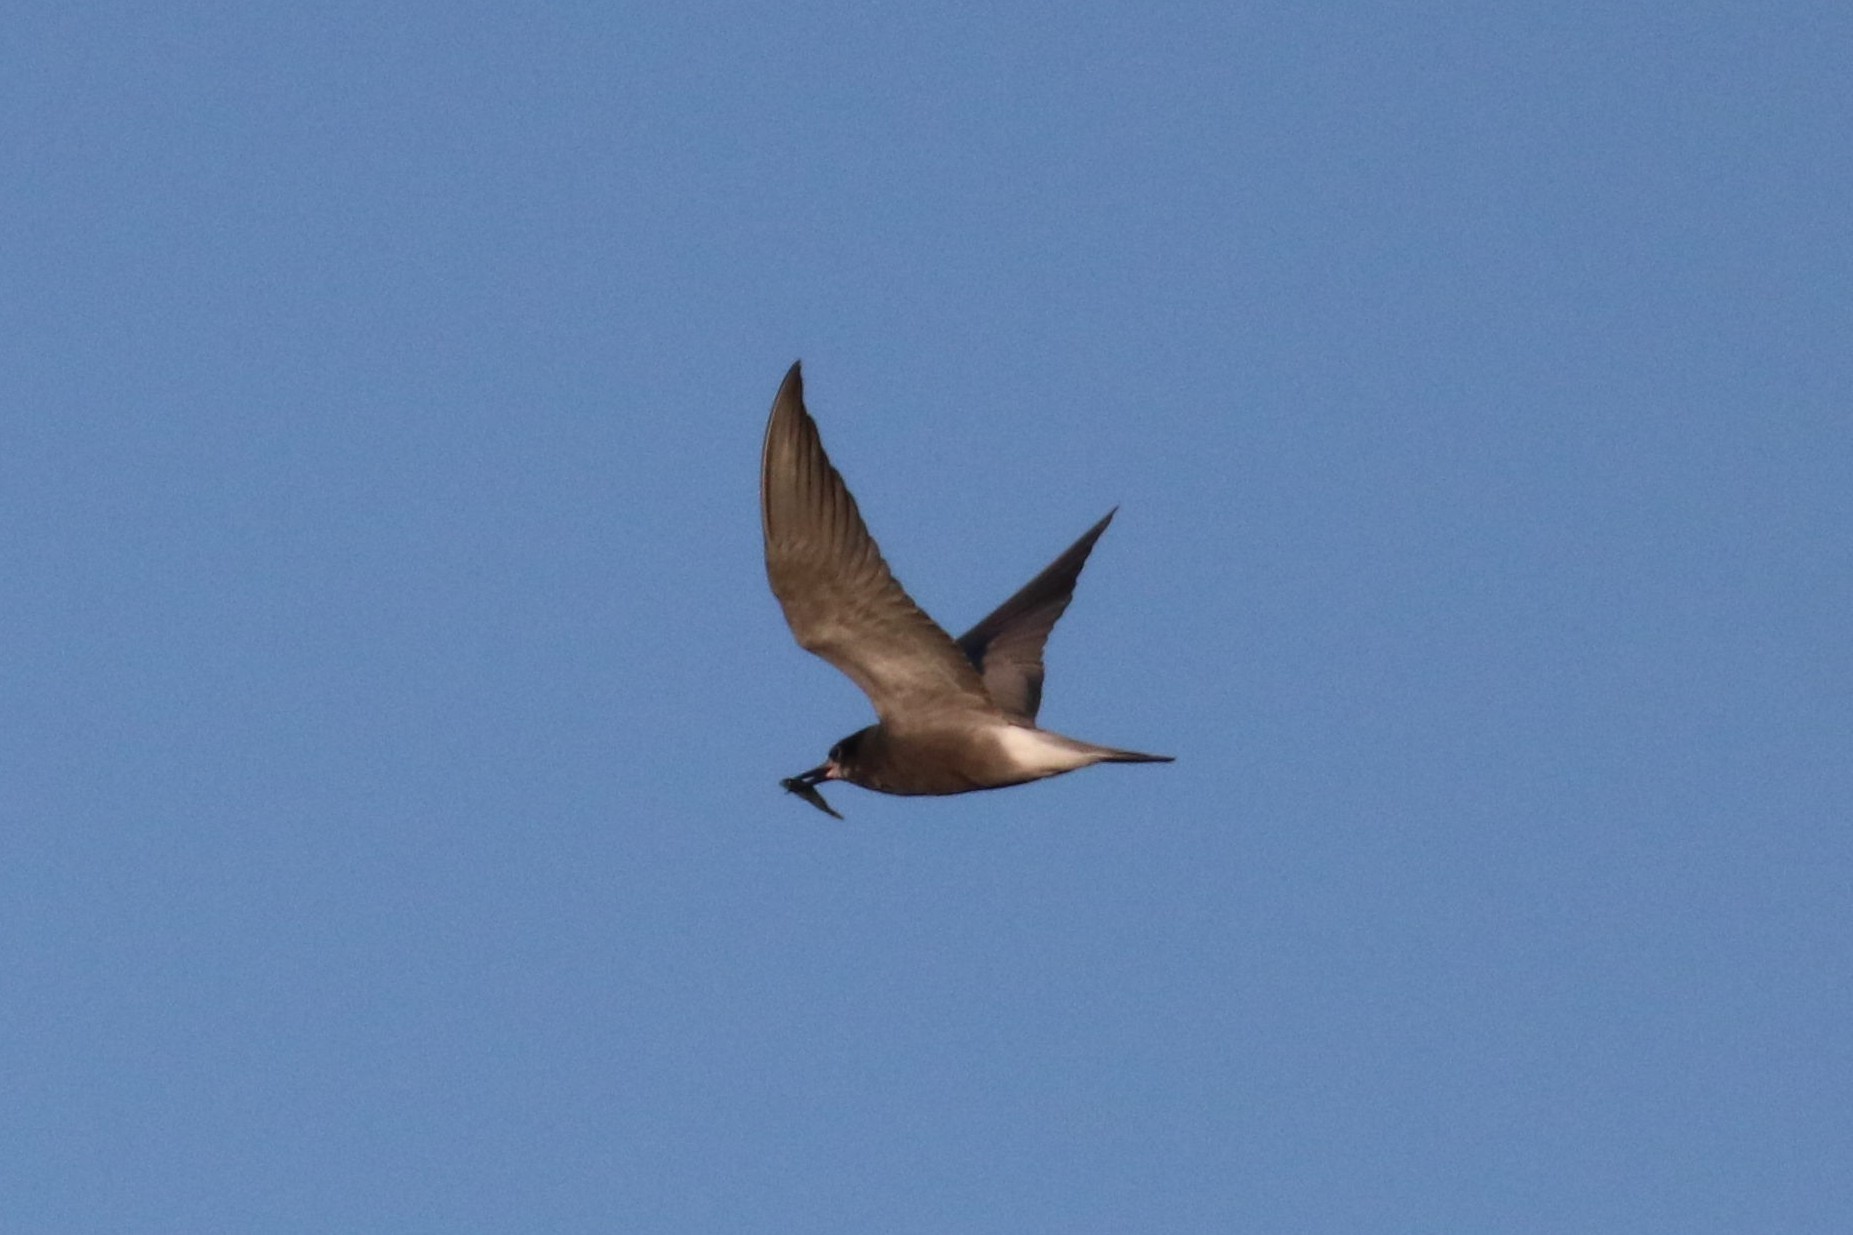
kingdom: Animalia
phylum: Chordata
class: Aves
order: Charadriiformes
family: Laridae
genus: Chlidonias
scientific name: Chlidonias niger
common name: Black tern
